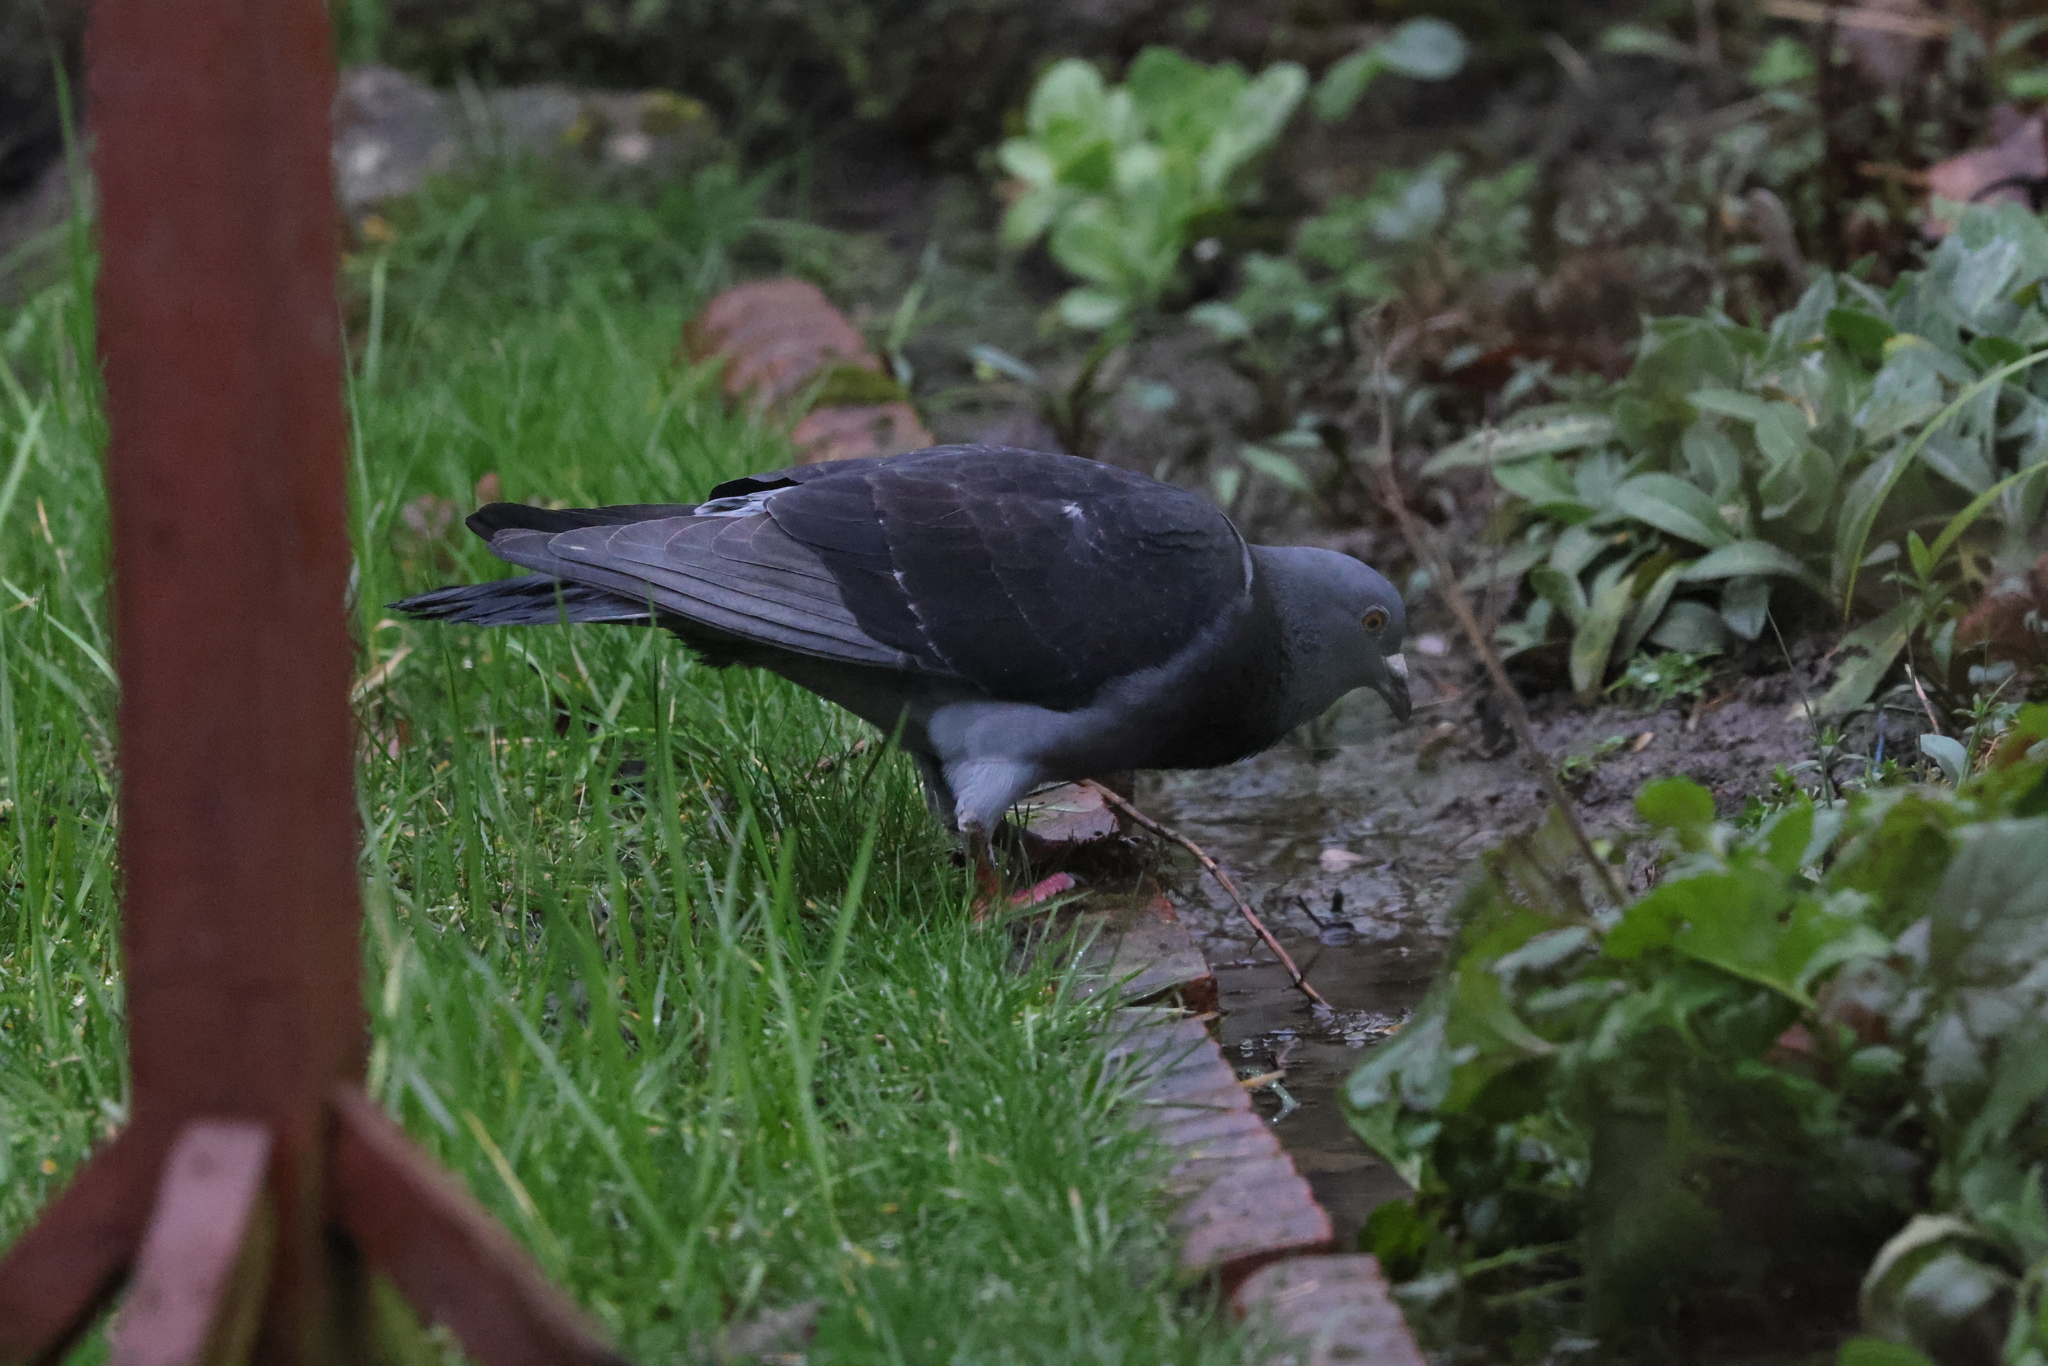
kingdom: Animalia
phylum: Chordata
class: Aves
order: Columbiformes
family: Columbidae
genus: Columba
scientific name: Columba livia
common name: Rock pigeon
